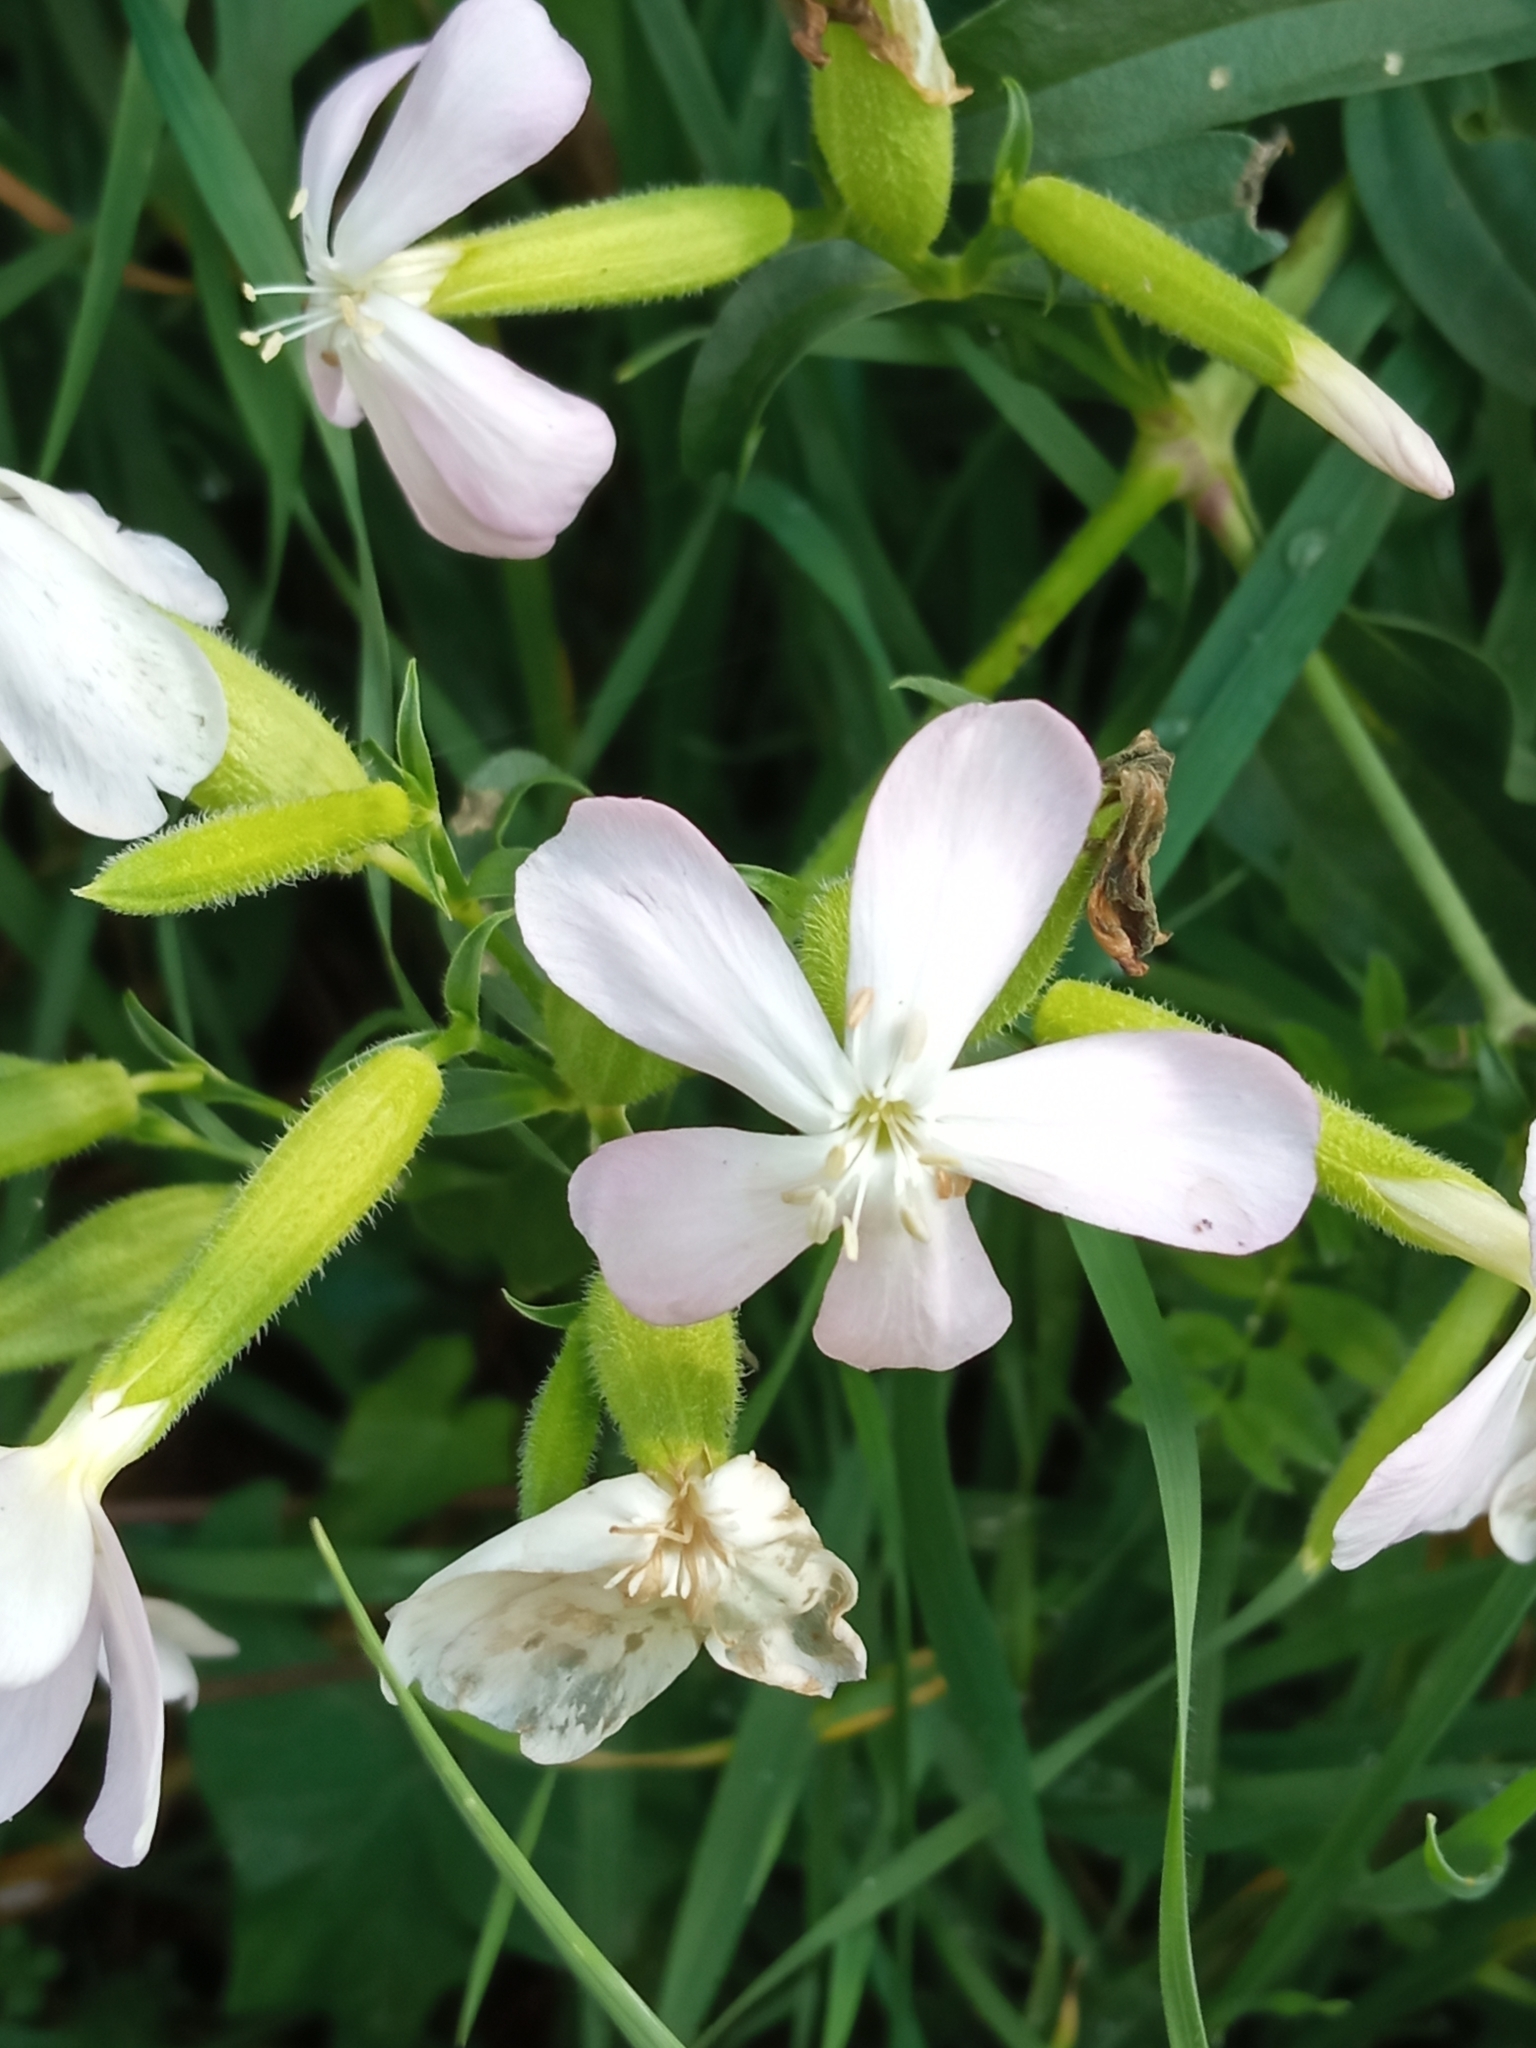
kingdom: Plantae
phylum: Tracheophyta
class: Magnoliopsida
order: Caryophyllales
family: Caryophyllaceae
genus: Saponaria
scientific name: Saponaria officinalis
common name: Soapwort
